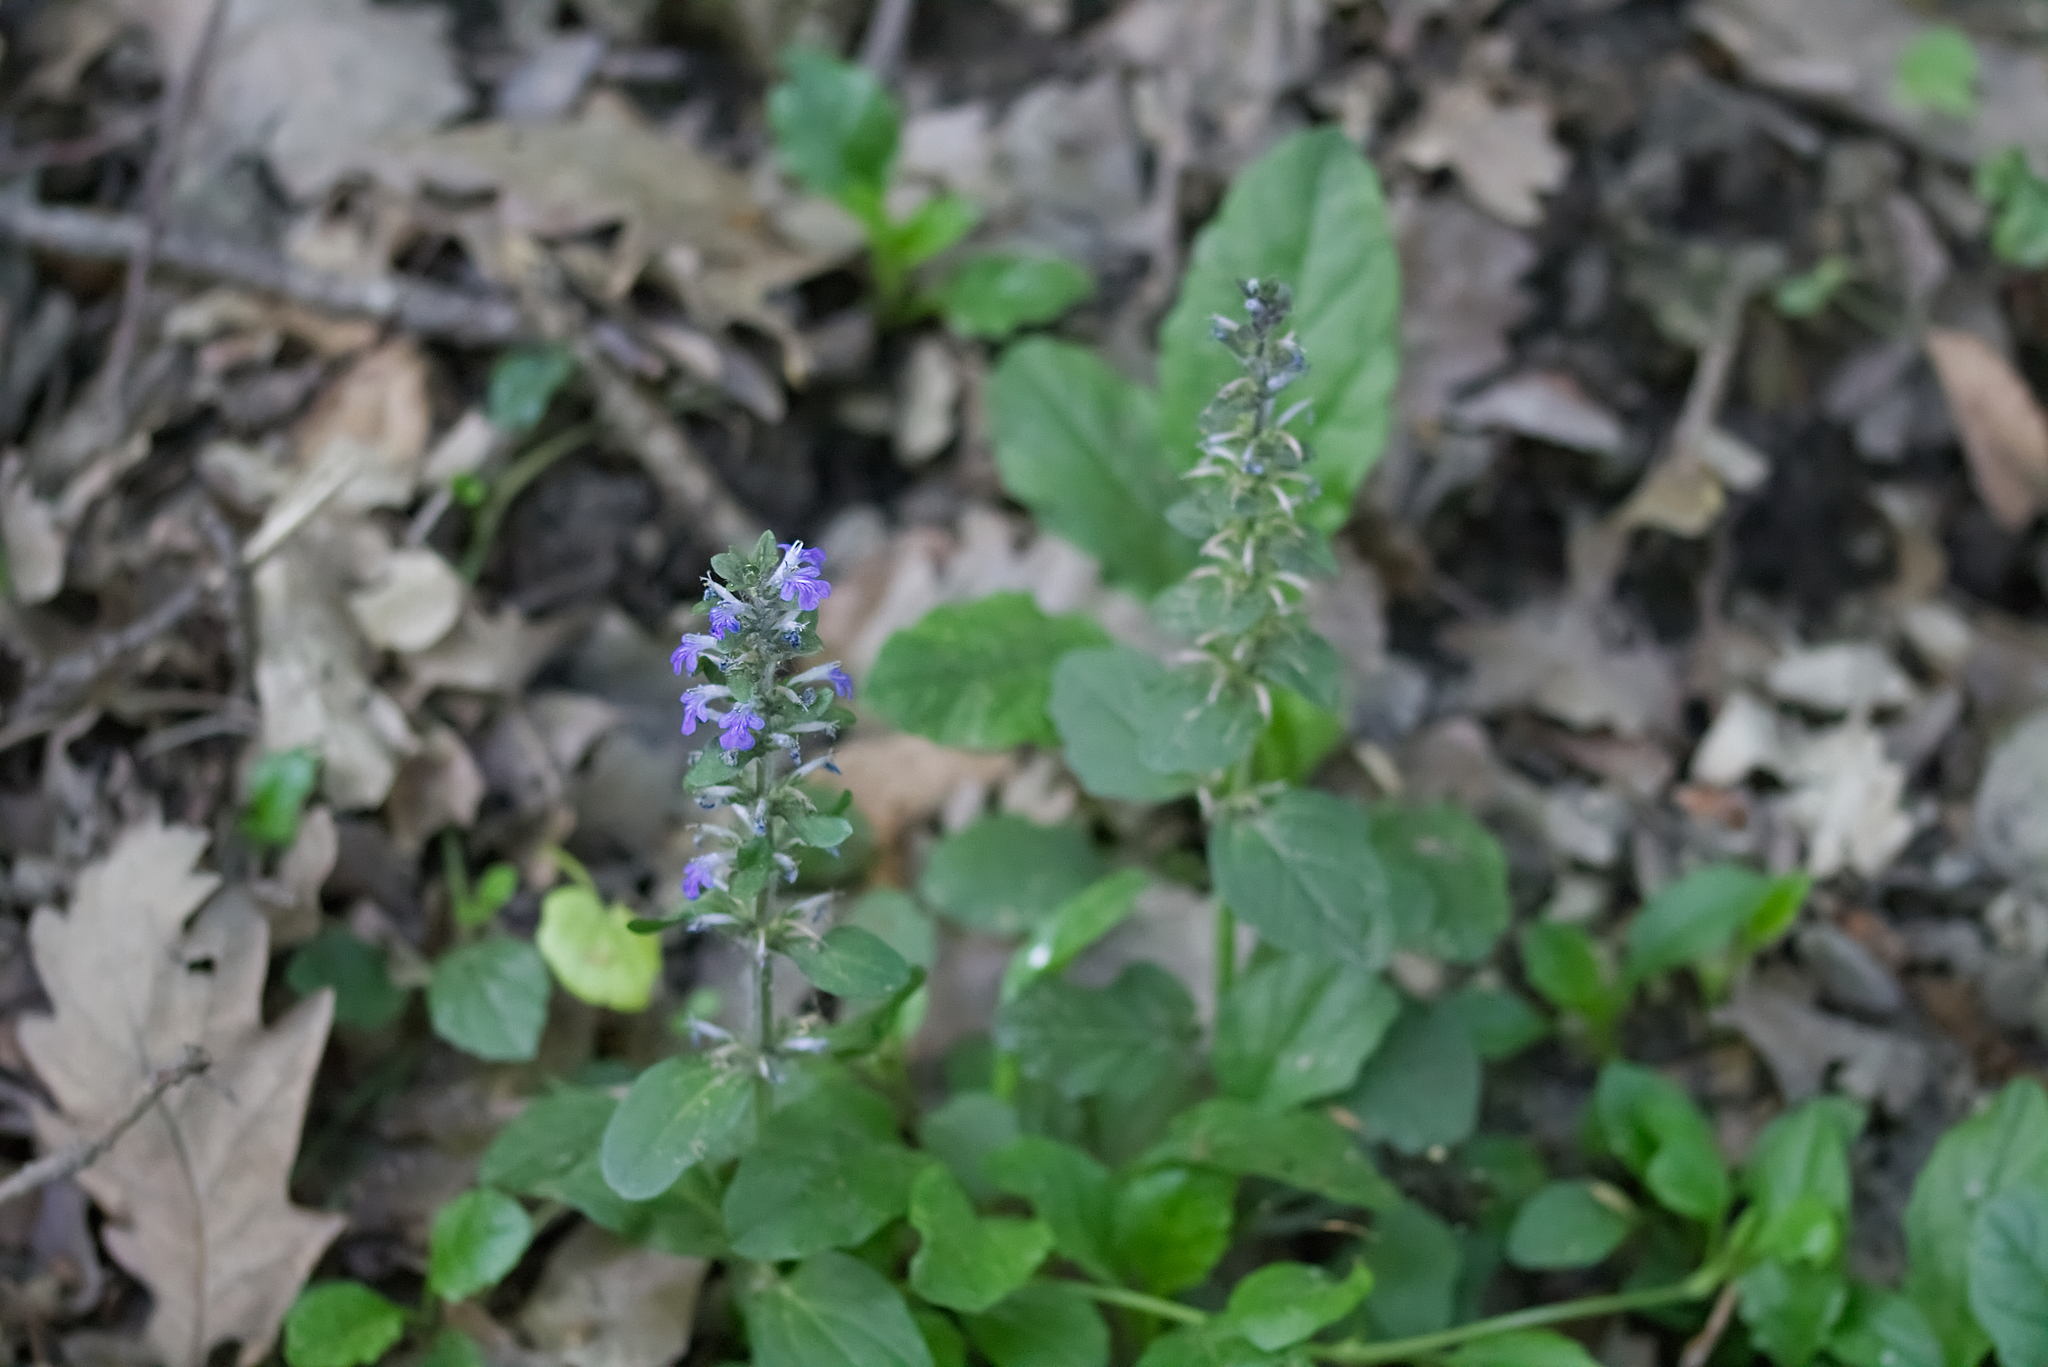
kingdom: Plantae
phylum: Tracheophyta
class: Magnoliopsida
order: Lamiales
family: Lamiaceae
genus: Ajuga
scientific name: Ajuga reptans
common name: Bugle
